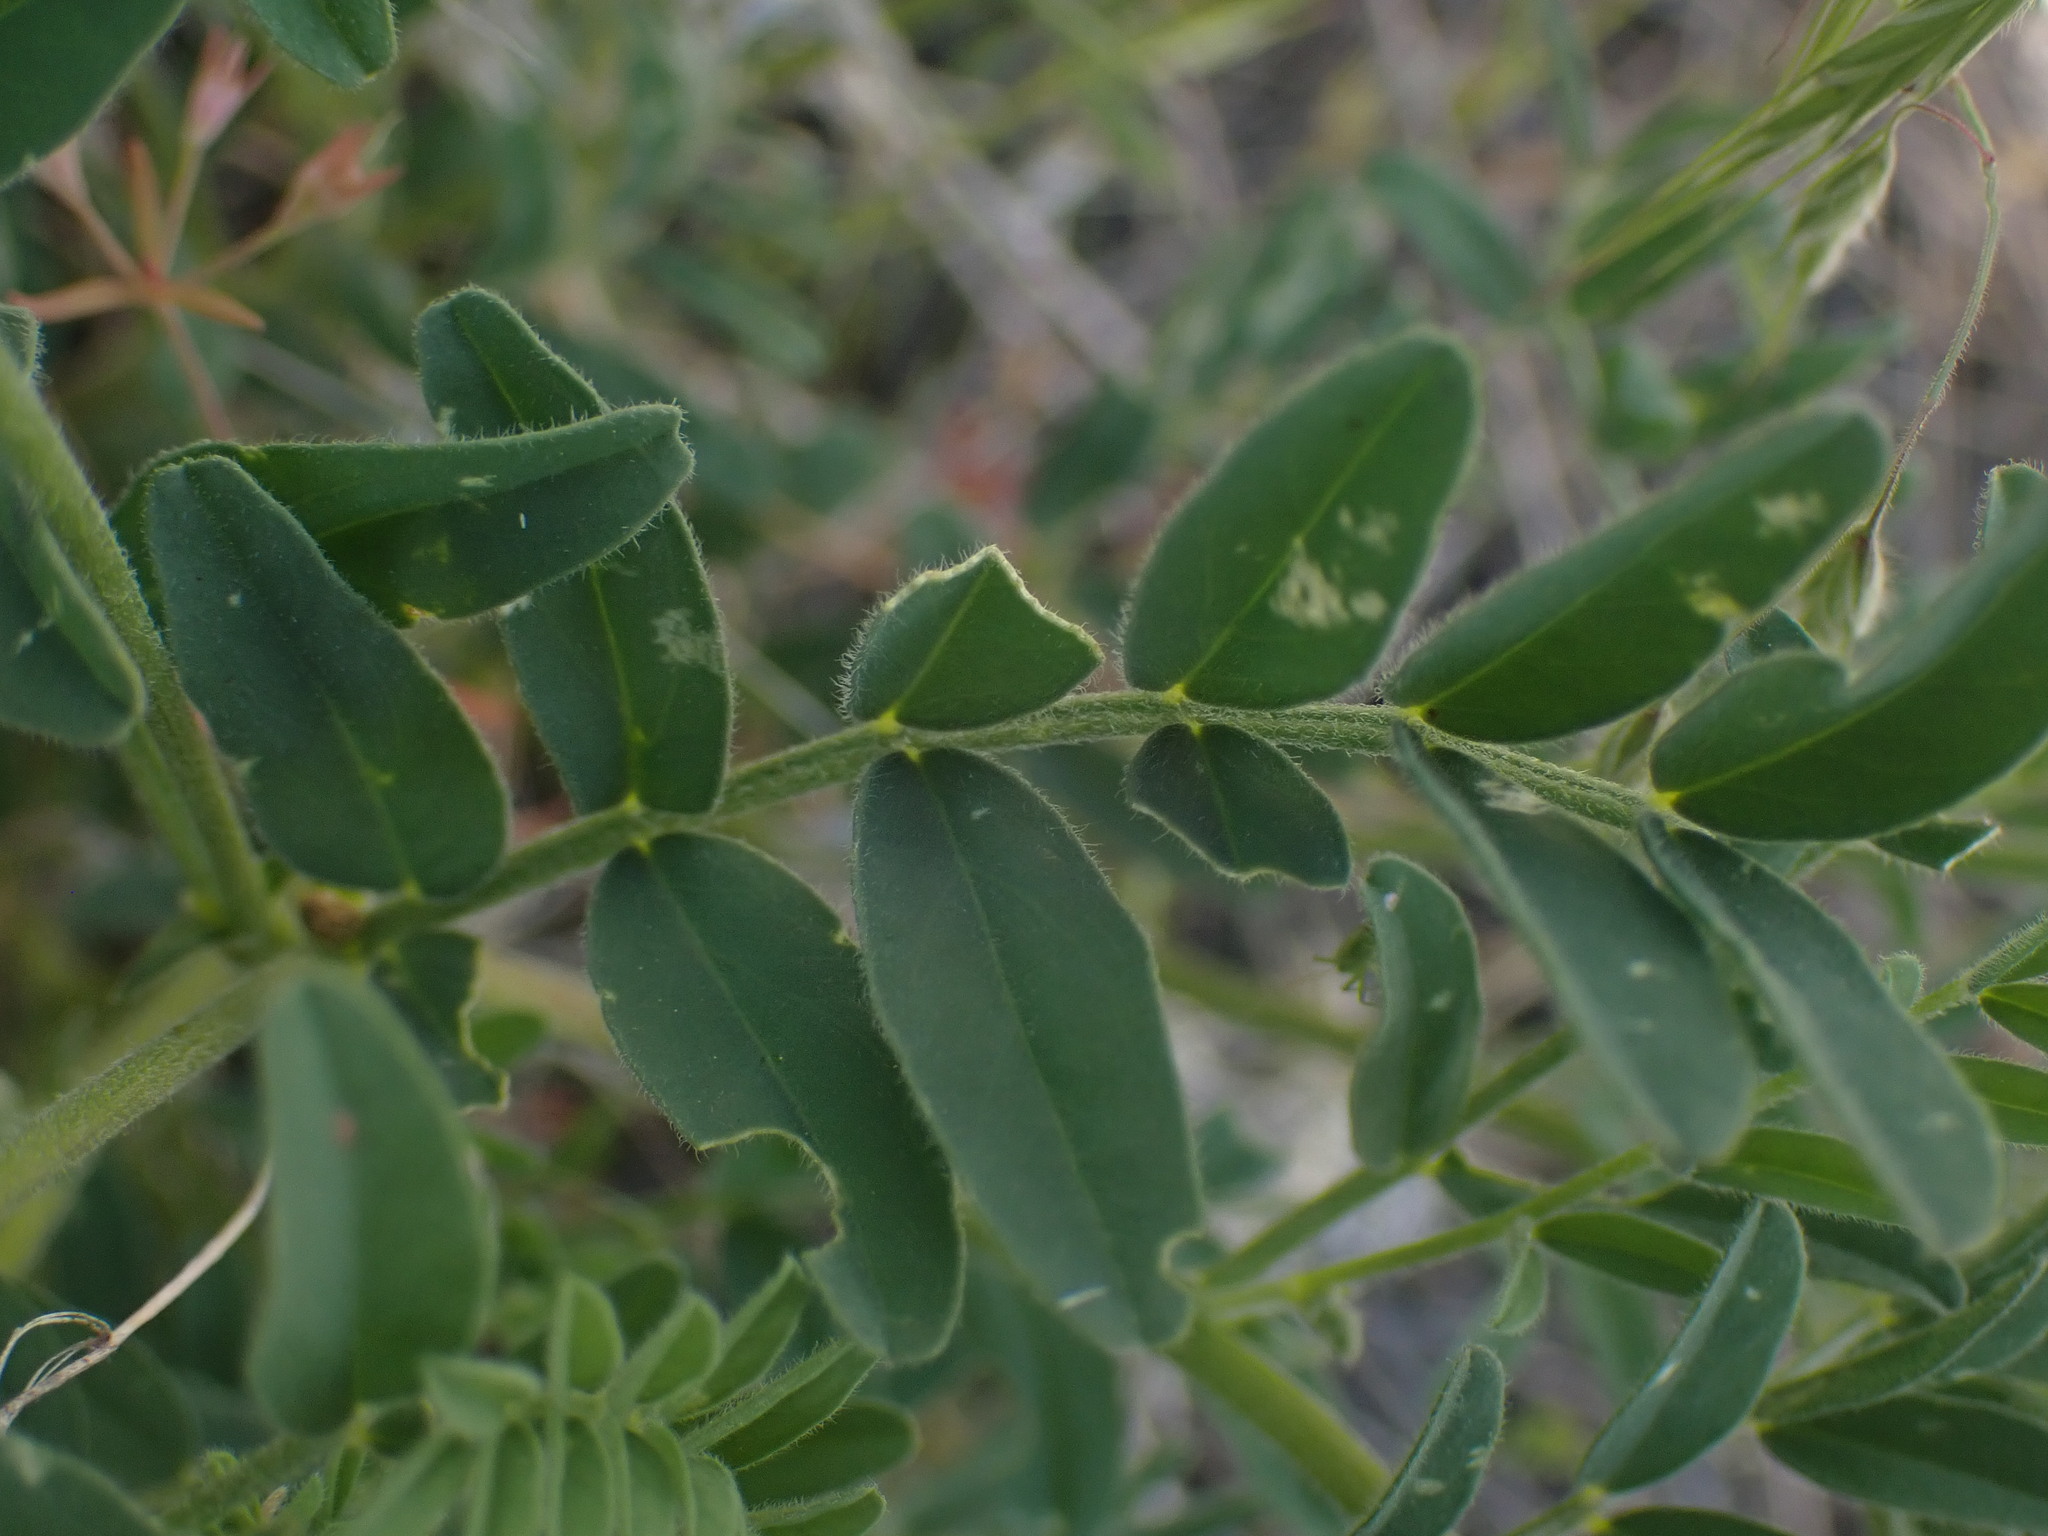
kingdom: Plantae
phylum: Tracheophyta
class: Magnoliopsida
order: Fabales
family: Fabaceae
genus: Astragalus
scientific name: Astragalus collinus
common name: Hill milk-vetch
